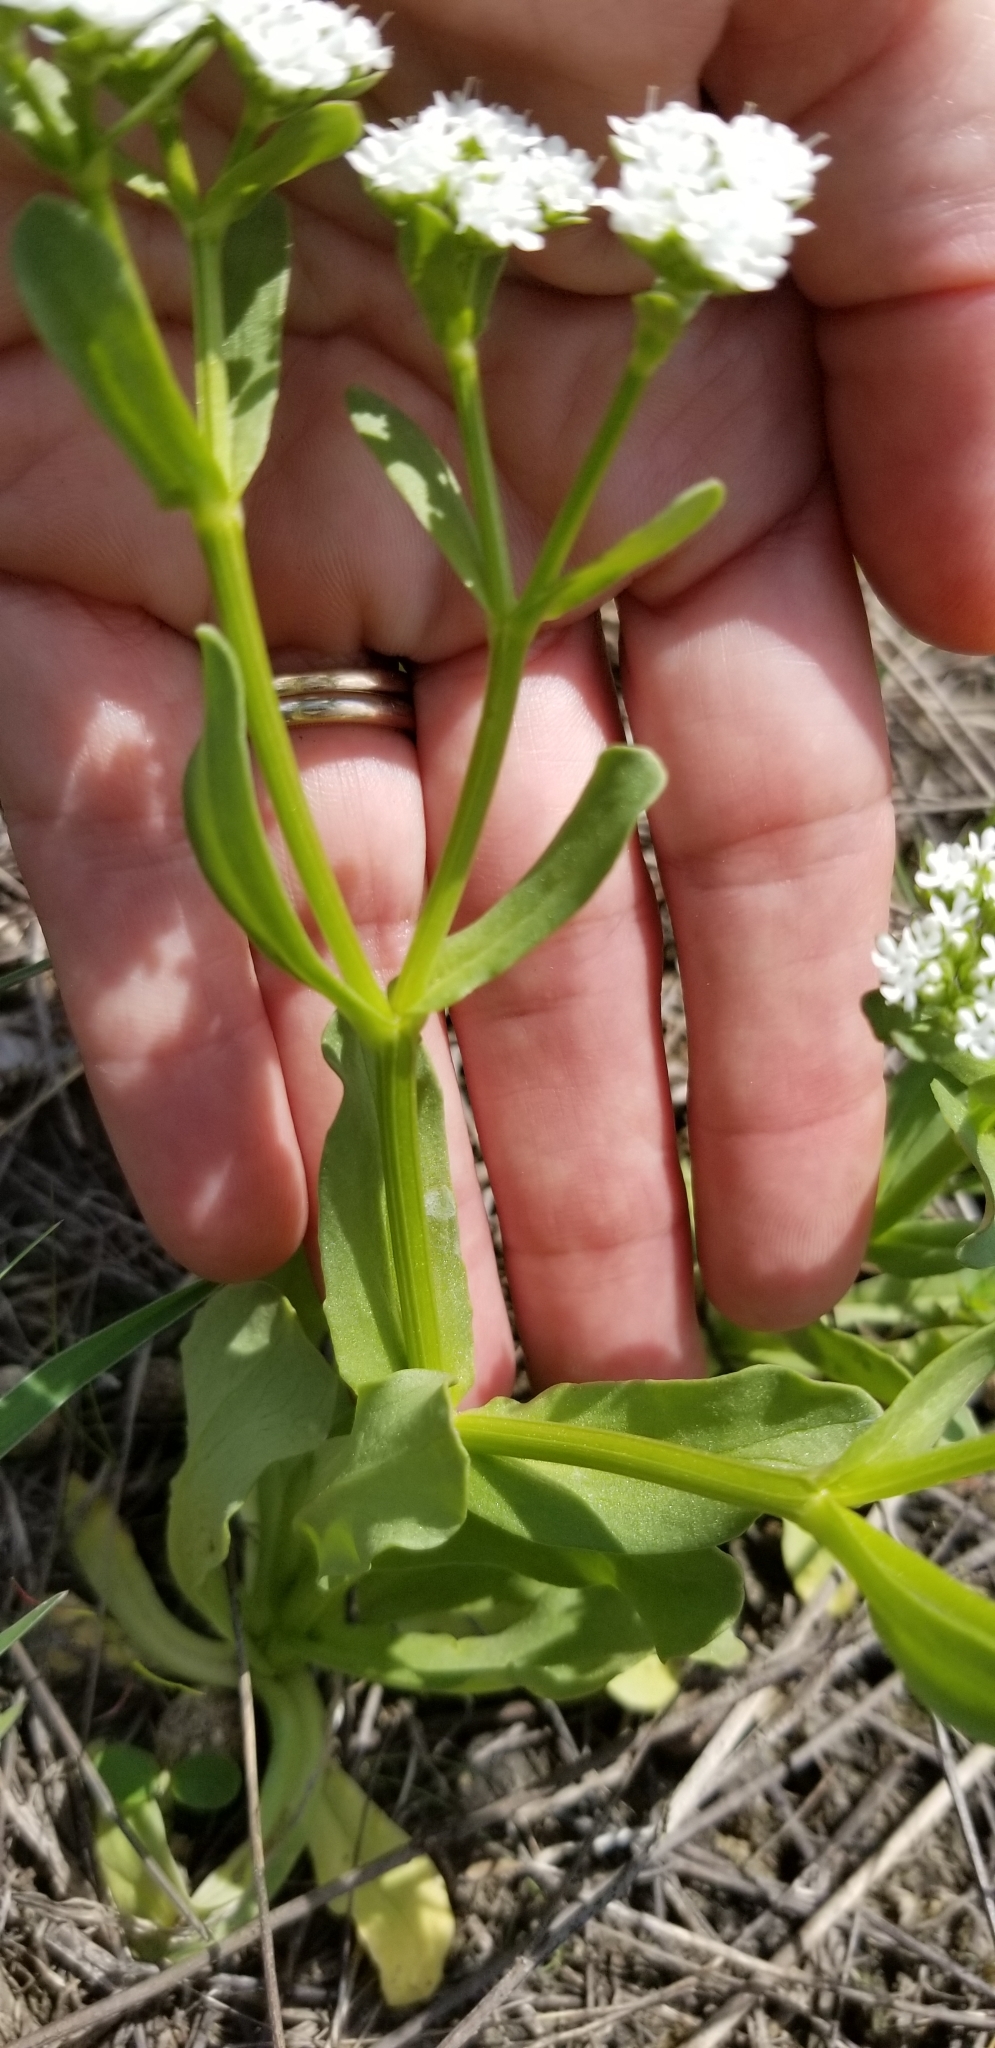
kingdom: Plantae
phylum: Tracheophyta
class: Magnoliopsida
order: Dipsacales
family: Caprifoliaceae
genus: Valerianella
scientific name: Valerianella amarella
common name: Hariy cornsalad
